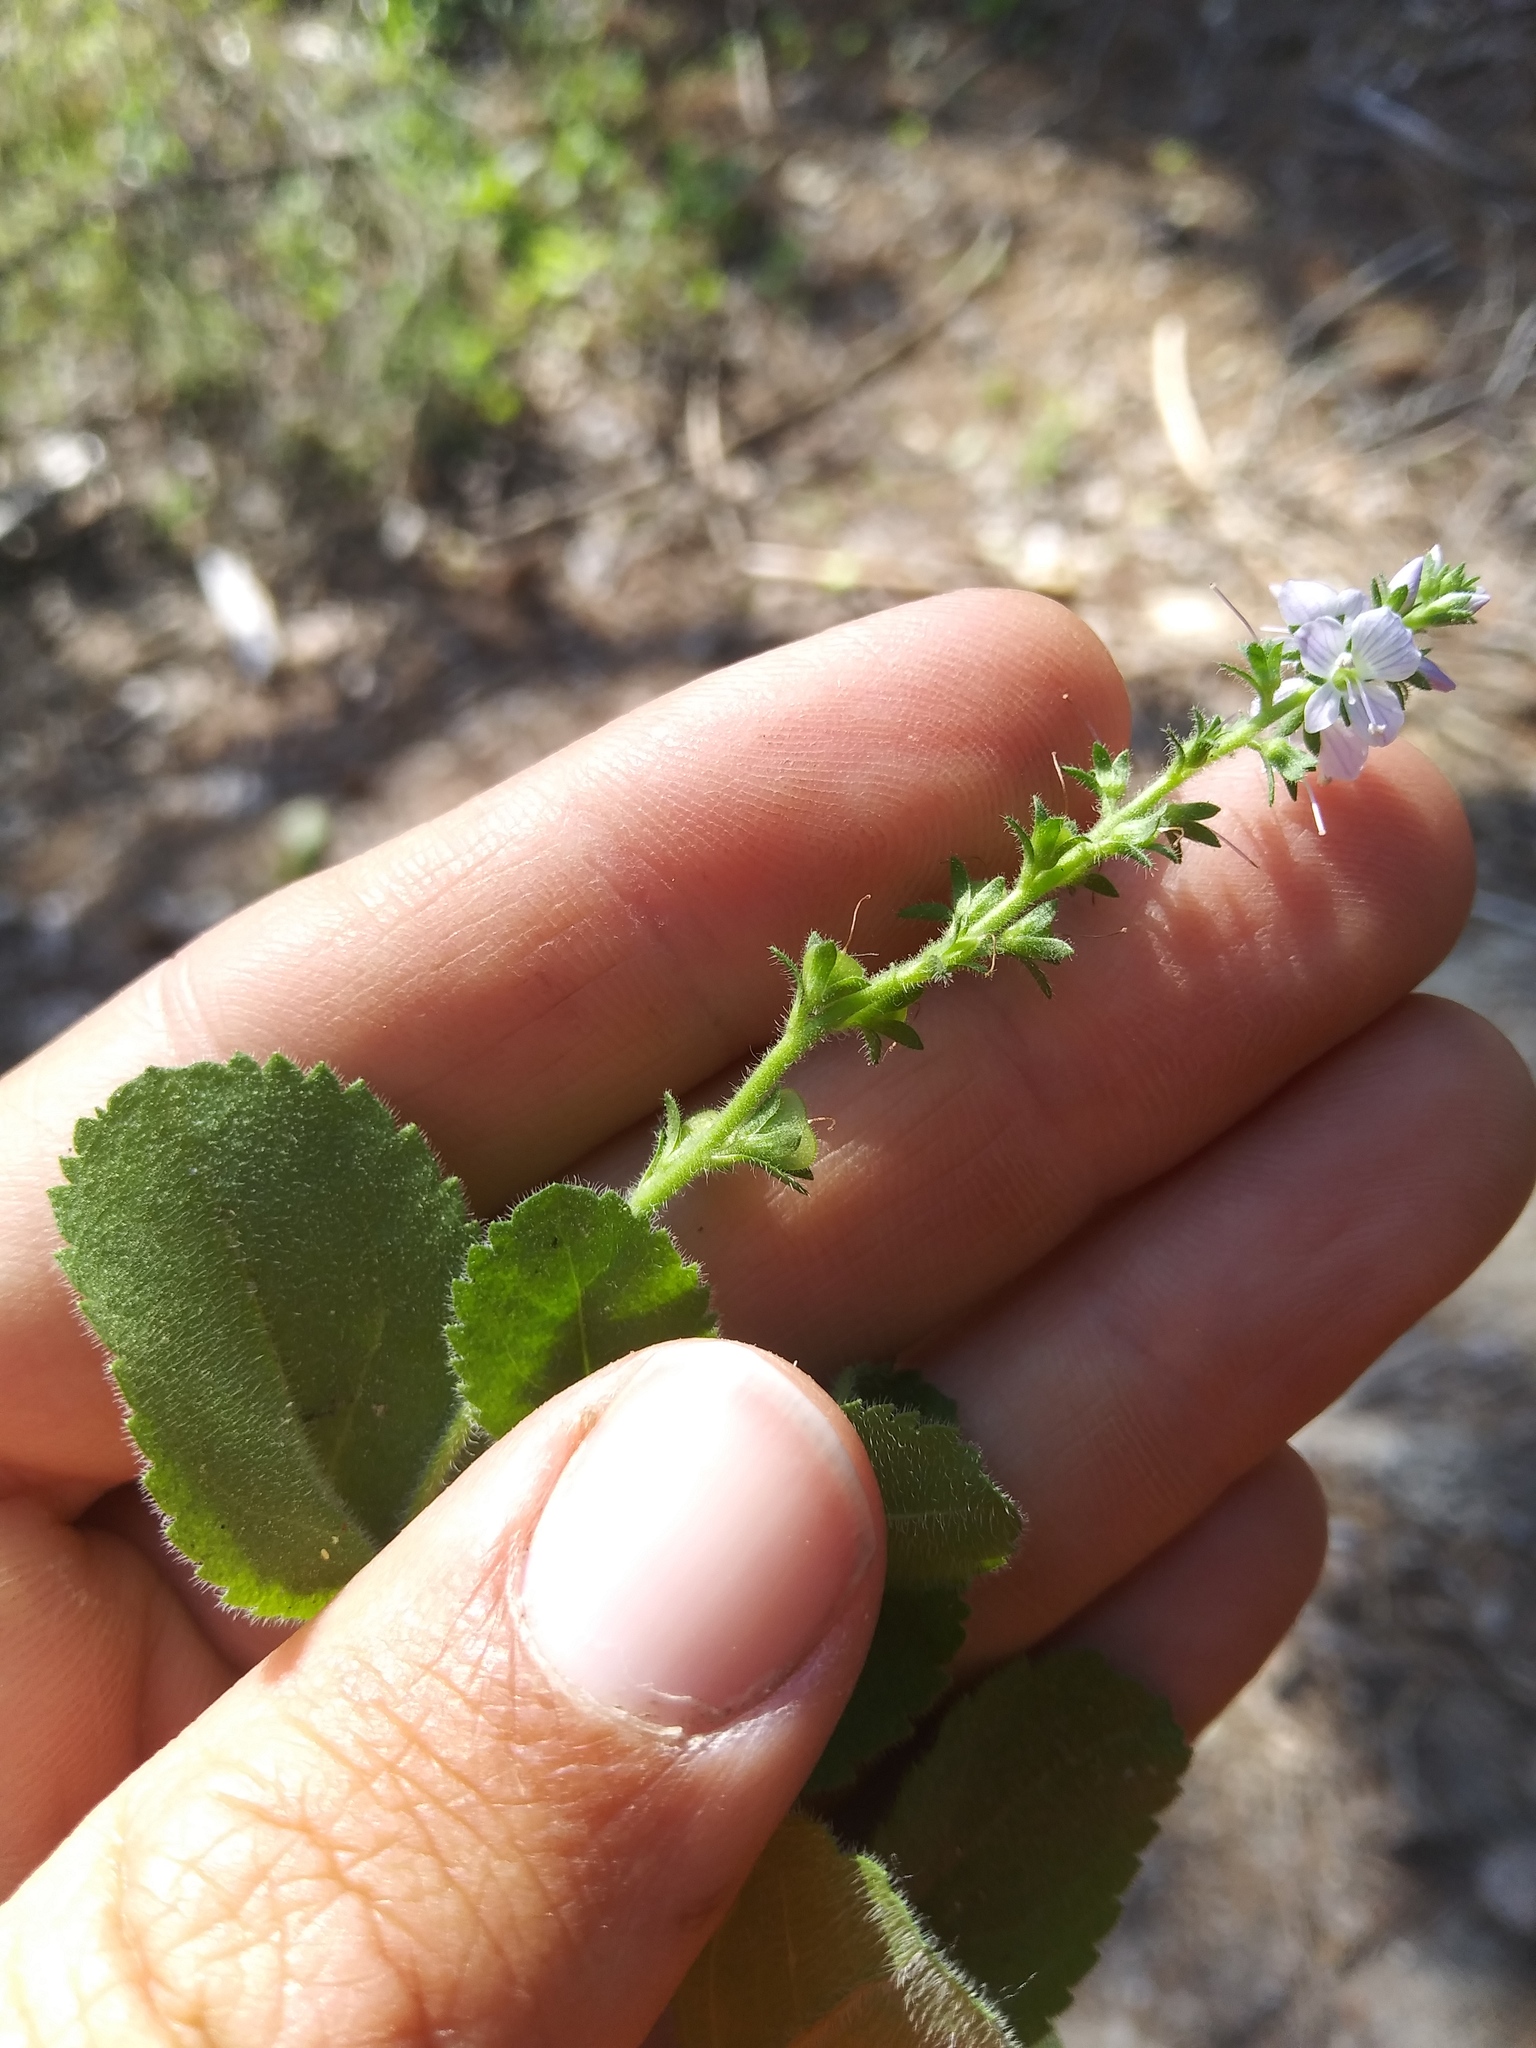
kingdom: Plantae
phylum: Tracheophyta
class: Magnoliopsida
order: Lamiales
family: Plantaginaceae
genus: Veronica
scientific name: Veronica officinalis
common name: Common speedwell
